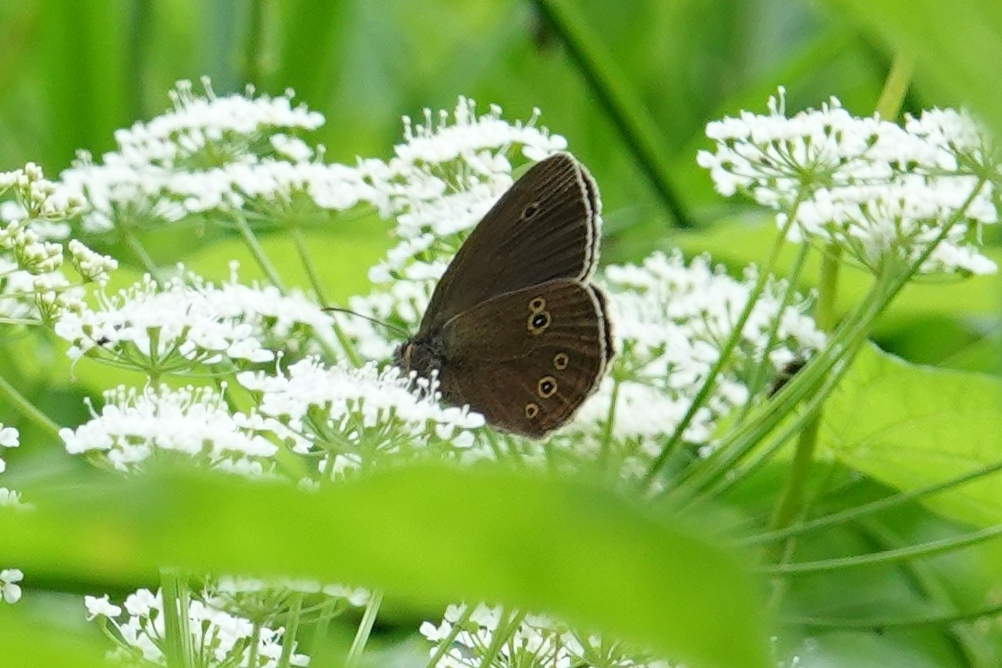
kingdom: Animalia
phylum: Arthropoda
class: Insecta
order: Lepidoptera
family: Nymphalidae
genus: Aphantopus
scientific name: Aphantopus hyperantus
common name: Ringlet
